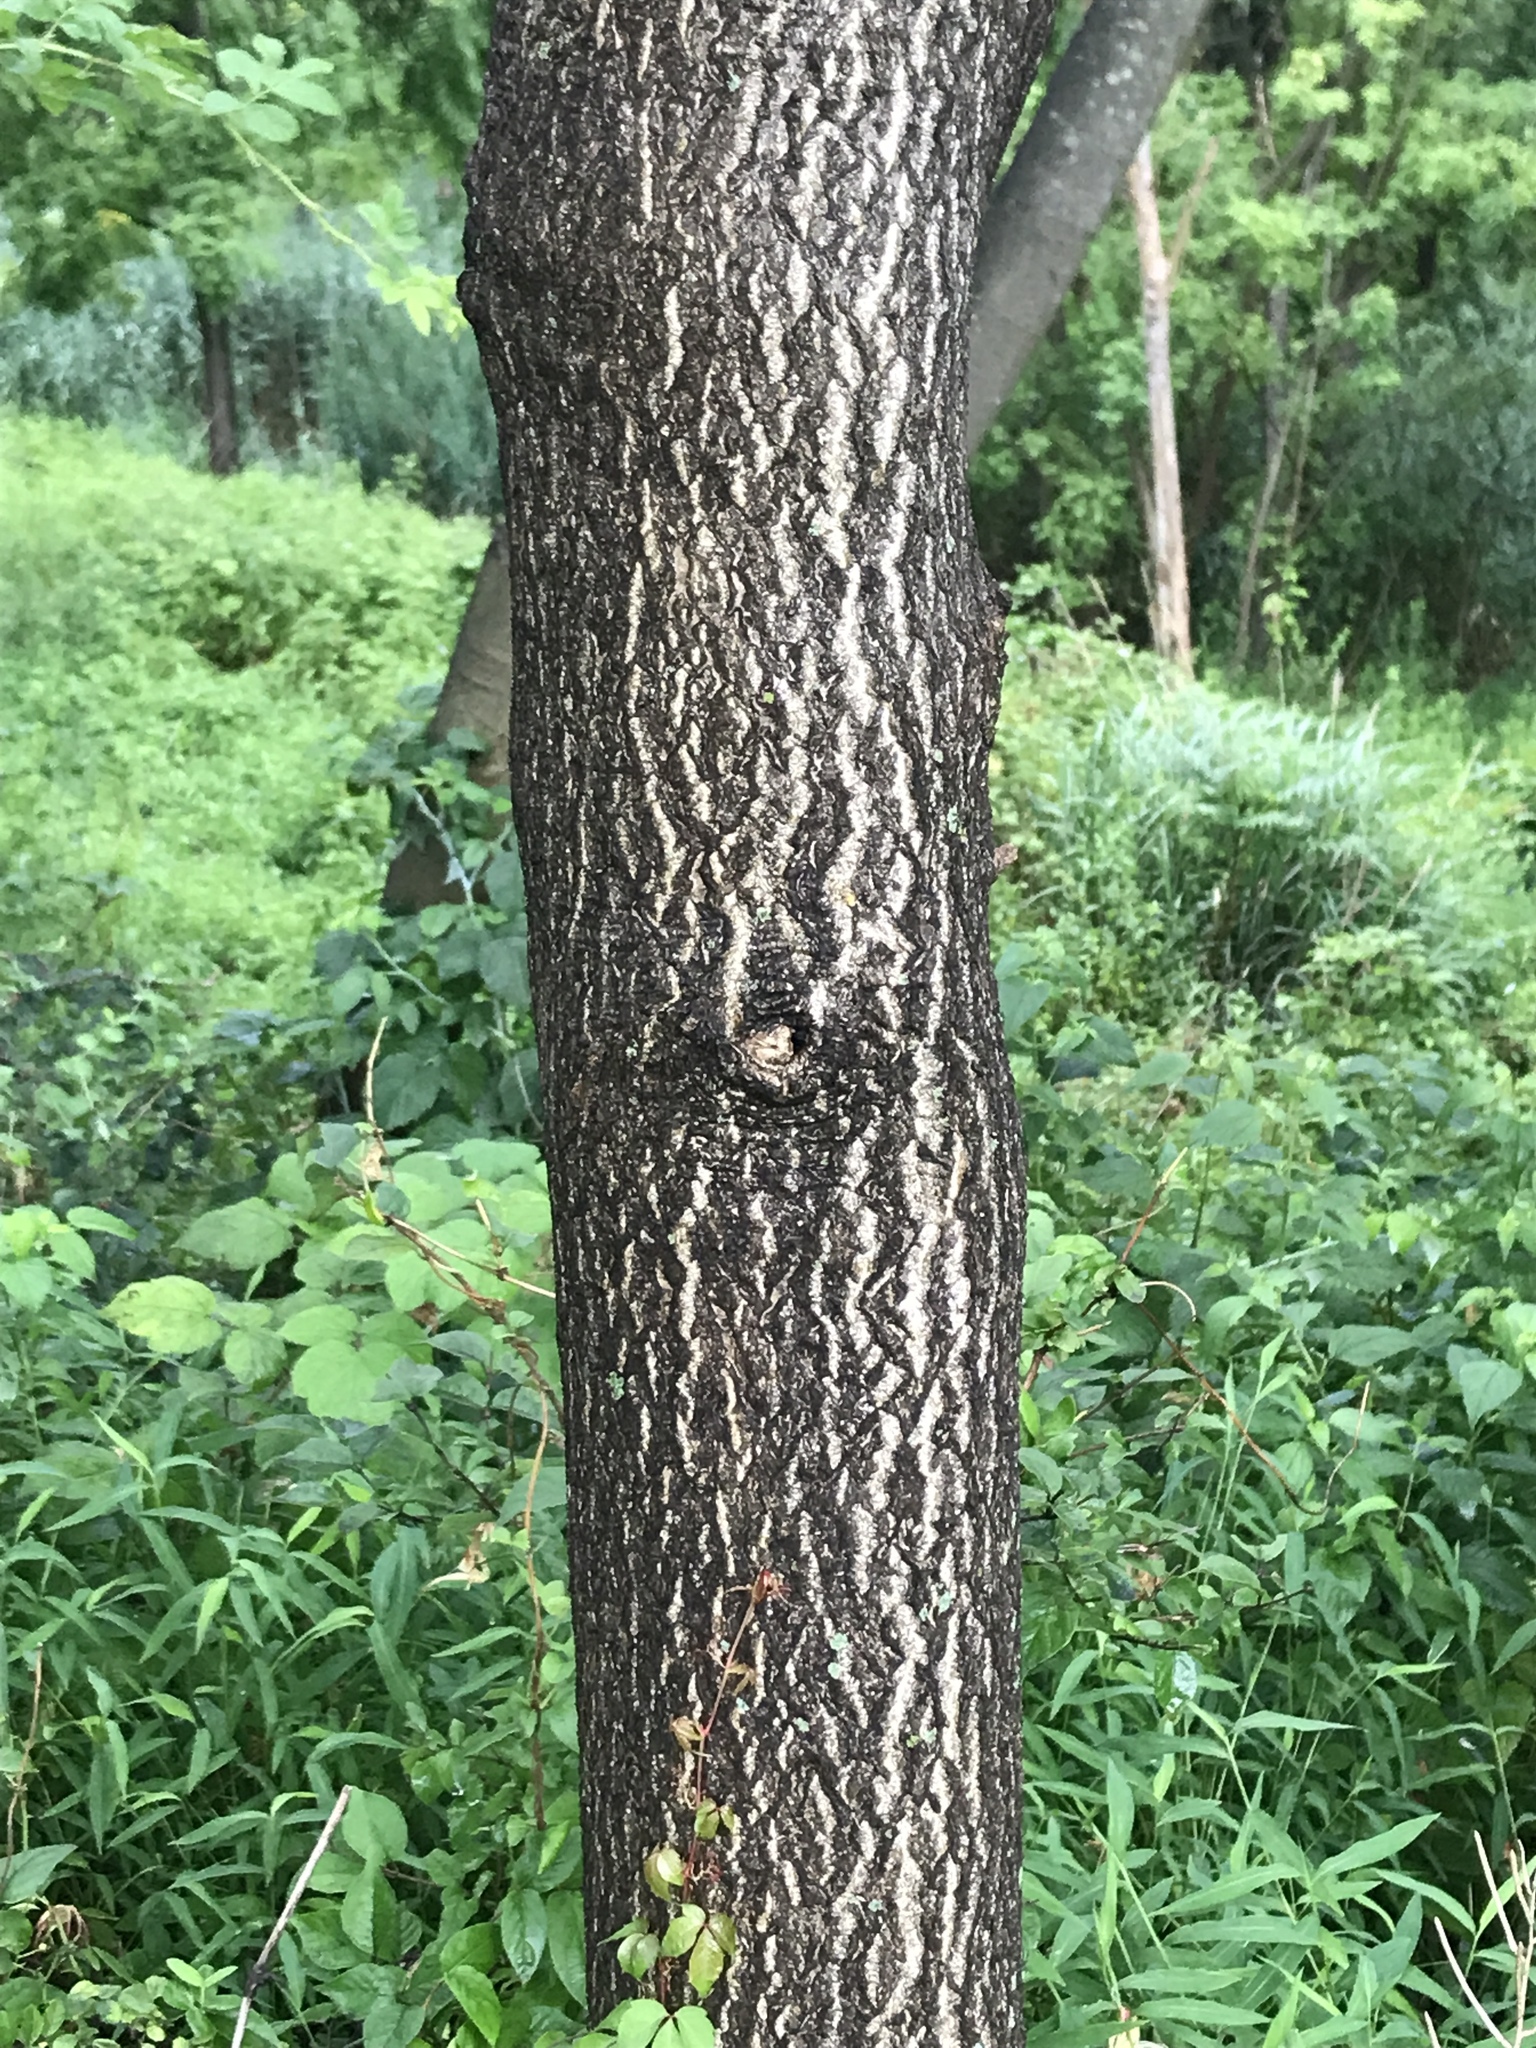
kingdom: Plantae
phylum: Tracheophyta
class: Magnoliopsida
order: Sapindales
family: Simaroubaceae
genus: Ailanthus
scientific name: Ailanthus altissima
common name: Tree-of-heaven
